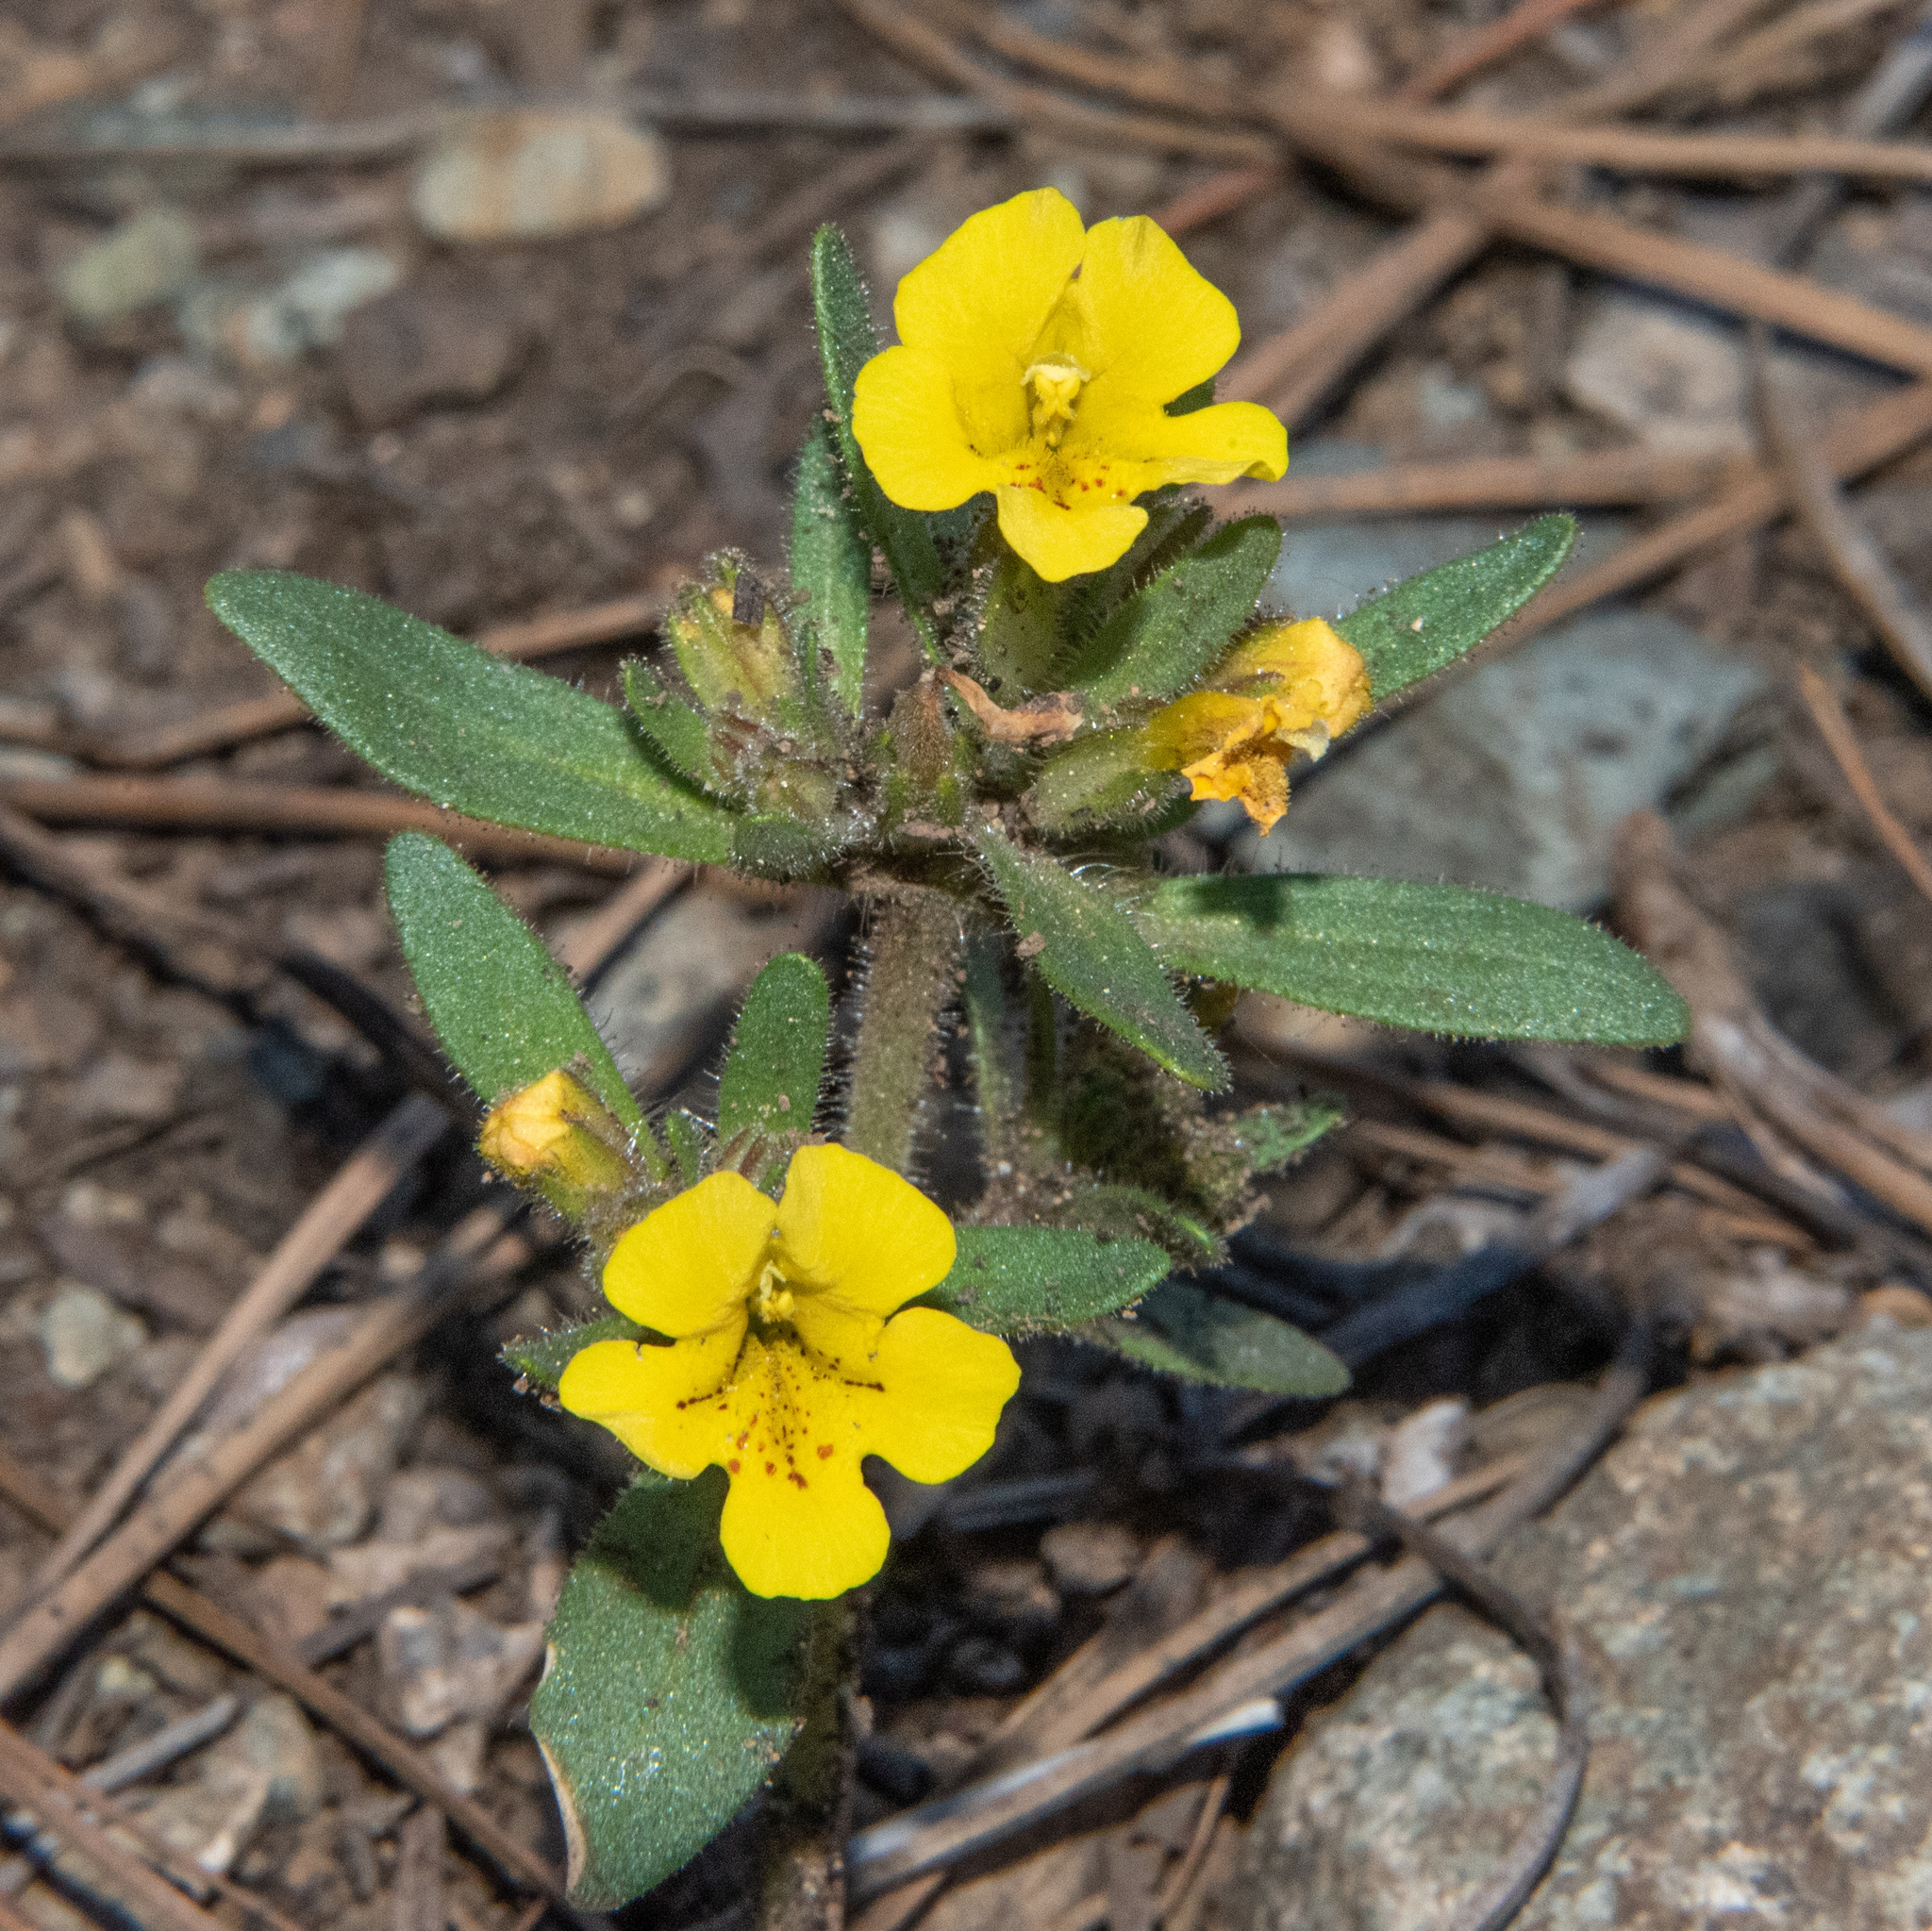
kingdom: Plantae
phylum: Tracheophyta
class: Magnoliopsida
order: Lamiales
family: Phrymaceae
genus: Diplacus
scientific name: Diplacus mephiticus
